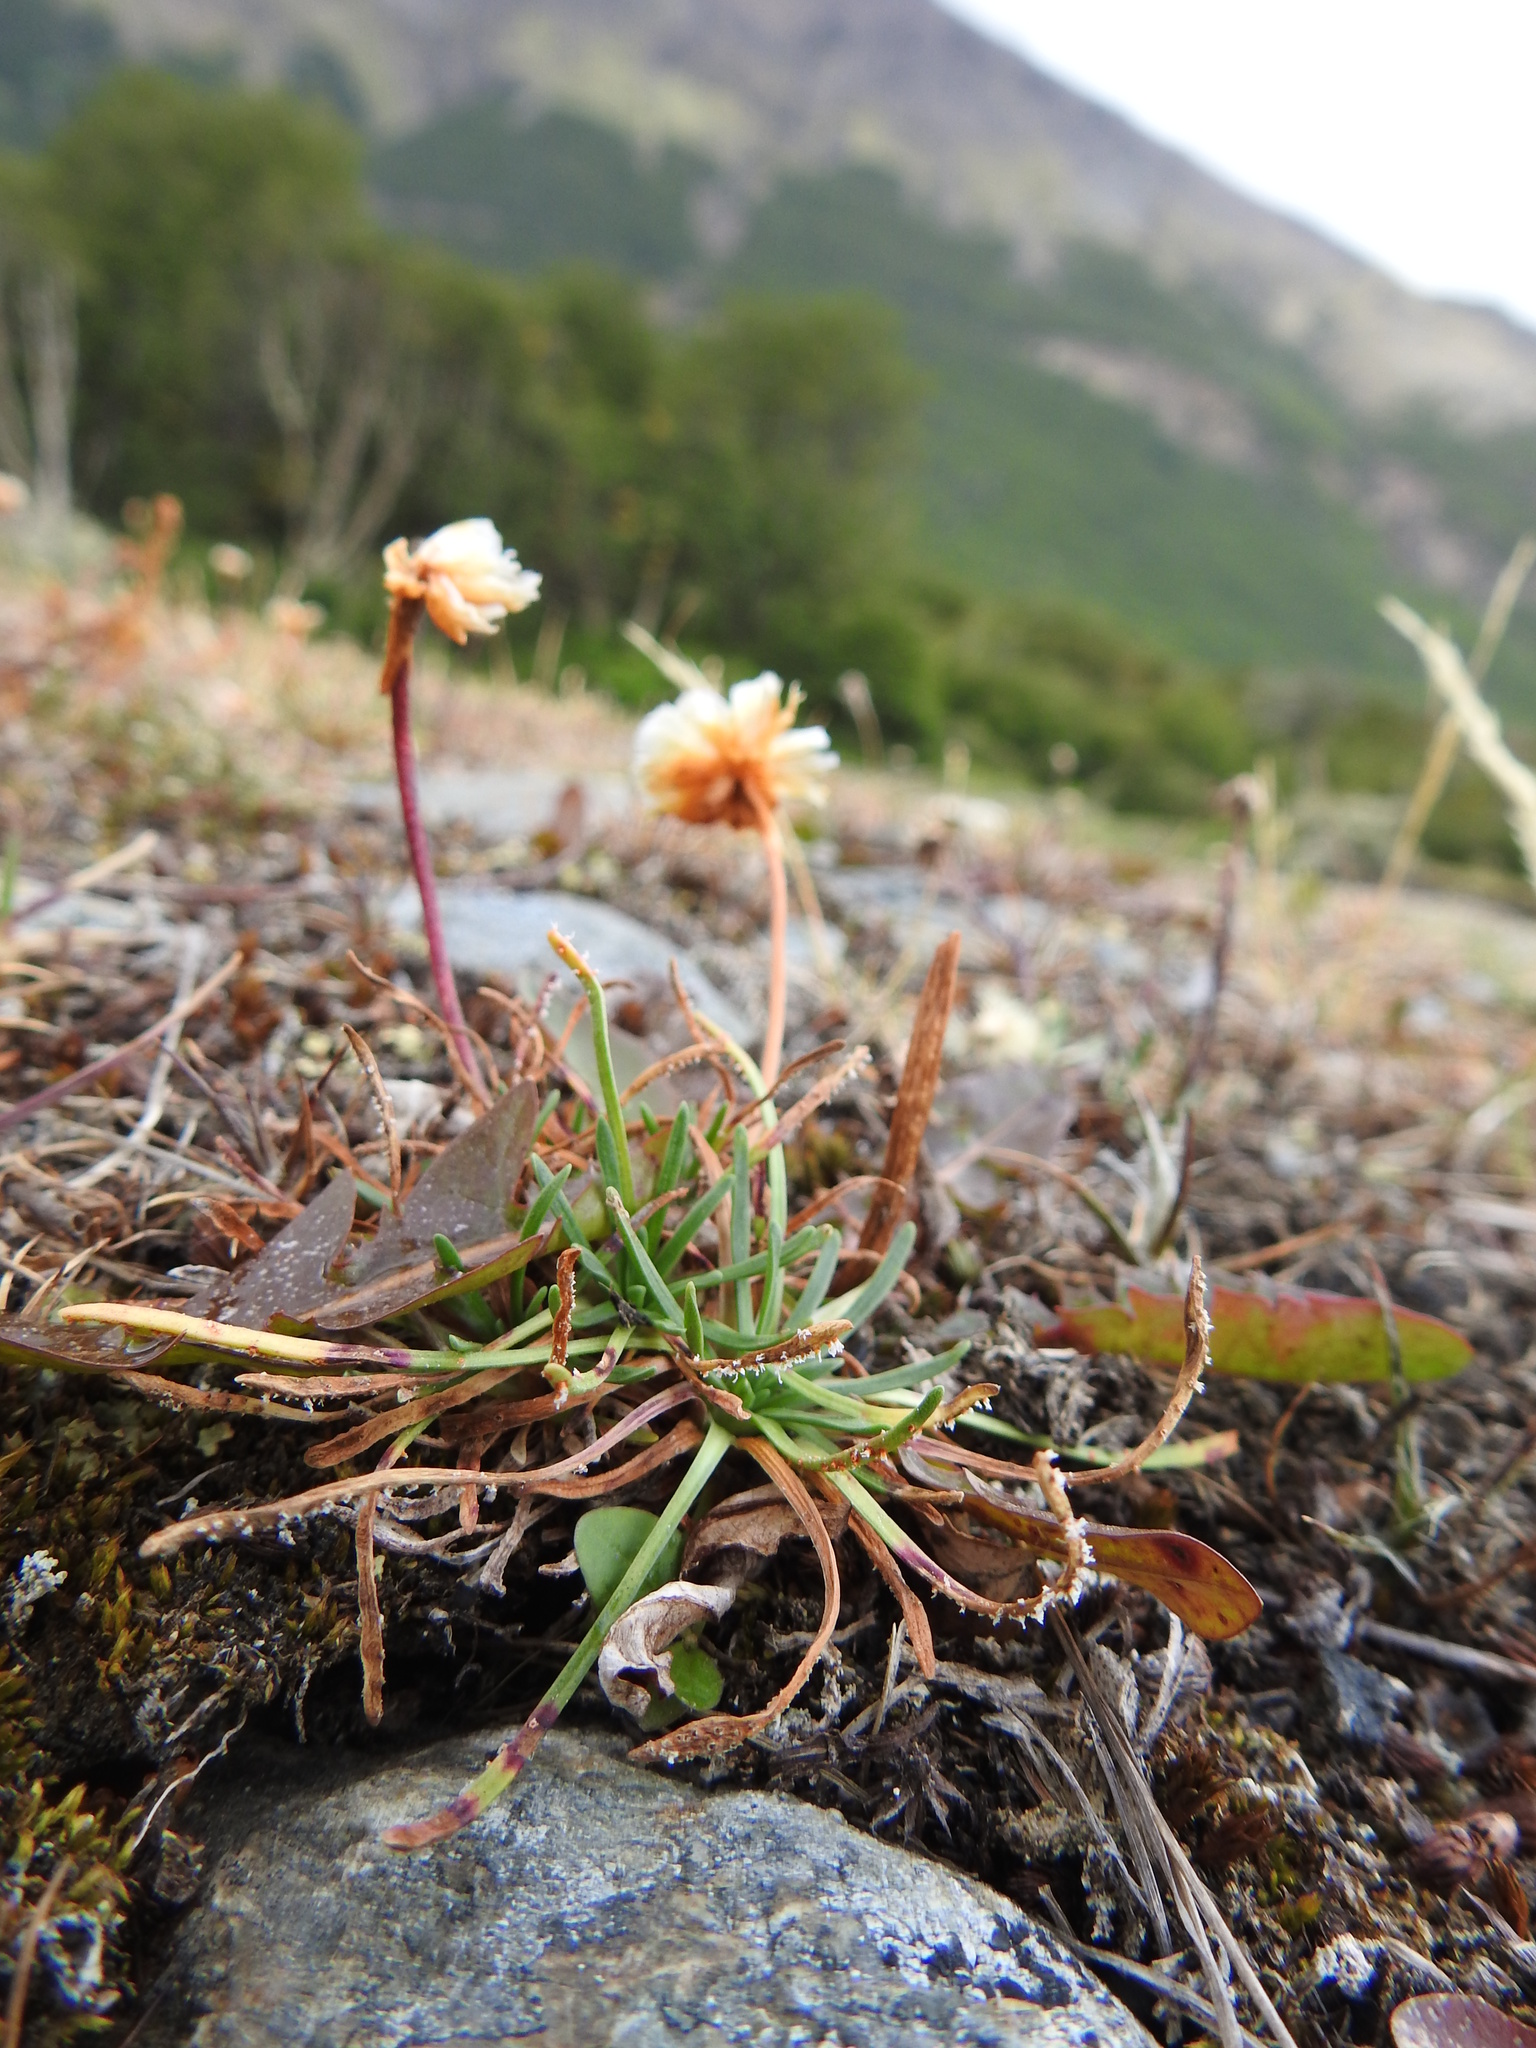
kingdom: Plantae
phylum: Tracheophyta
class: Magnoliopsida
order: Caryophyllales
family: Plumbaginaceae
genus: Armeria
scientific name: Armeria curvifolia
